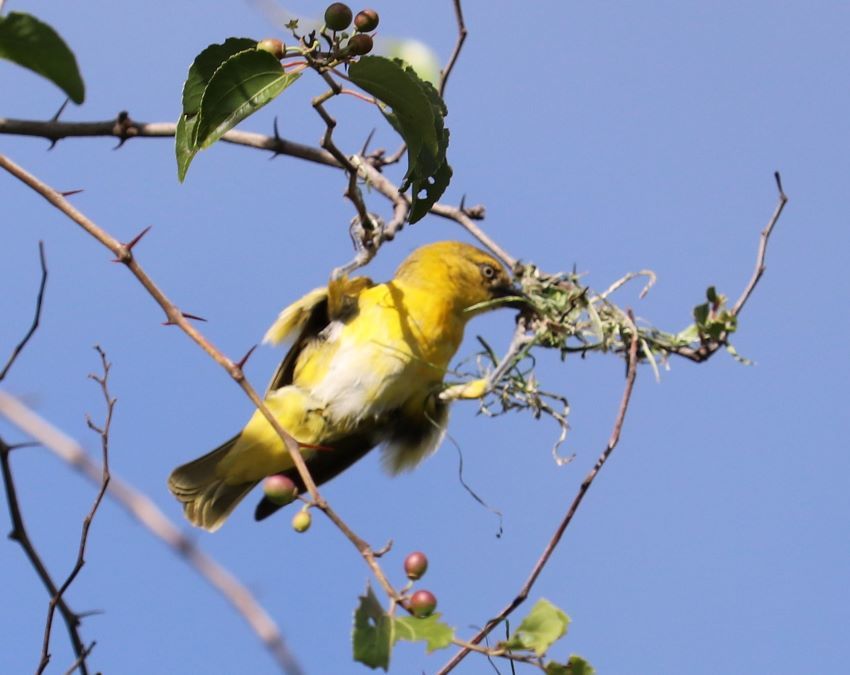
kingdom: Animalia
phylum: Chordata
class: Aves
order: Passeriformes
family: Ploceidae
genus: Ploceus
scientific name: Ploceus intermedius
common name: Lesser masked weaver
